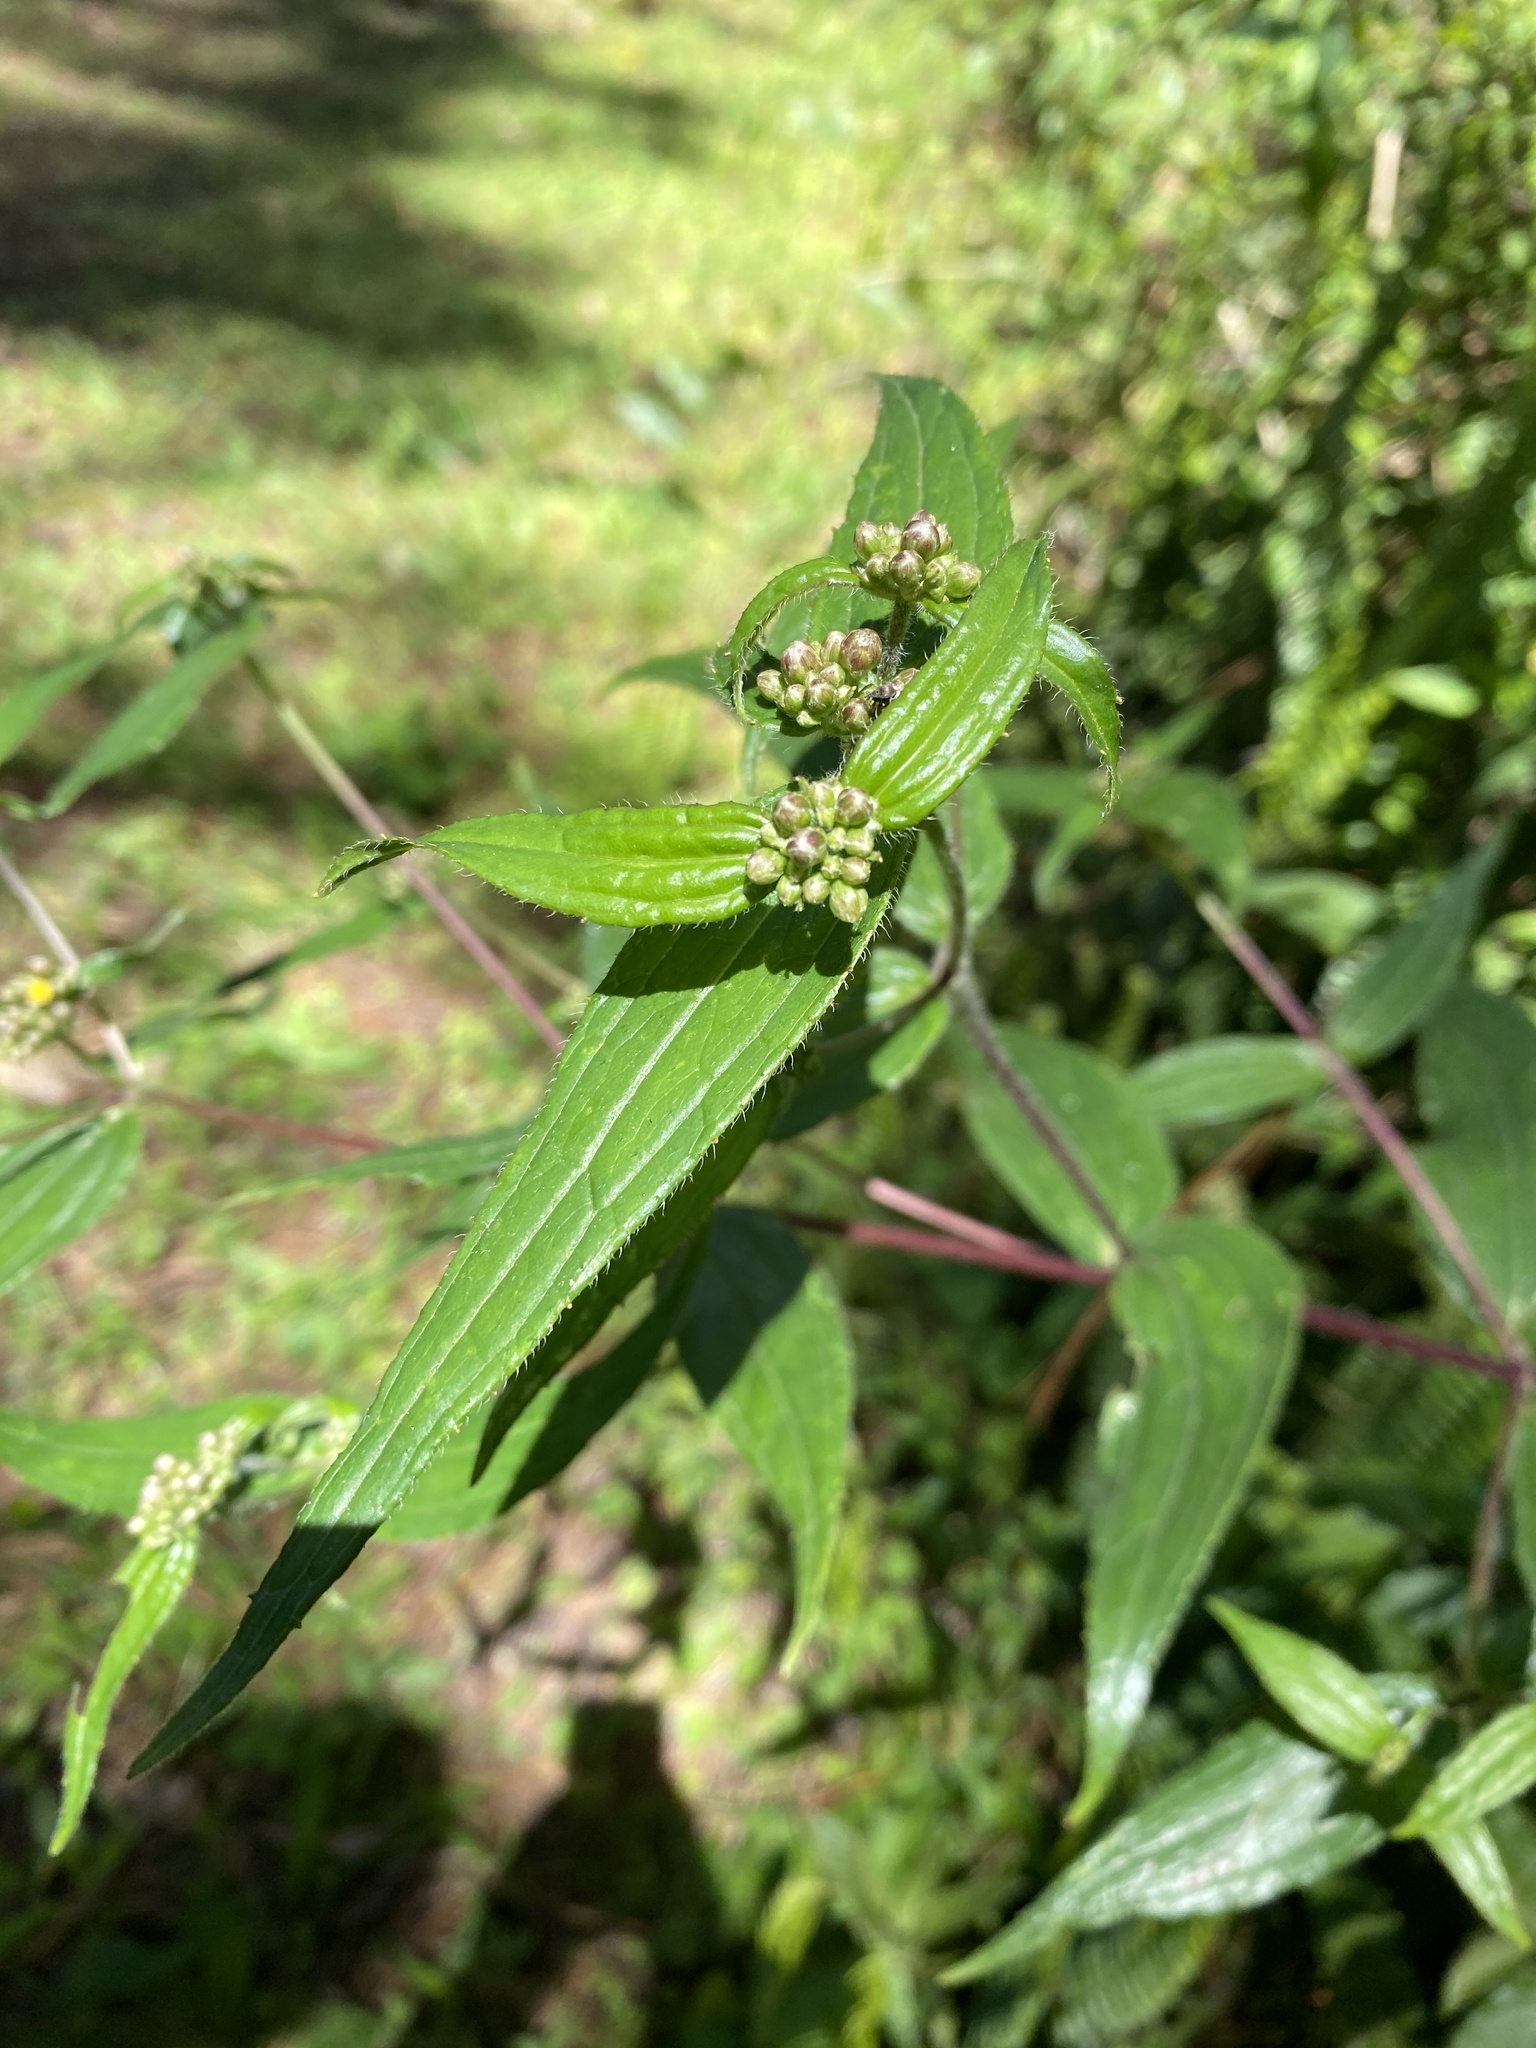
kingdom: Plantae
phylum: Tracheophyta
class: Magnoliopsida
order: Asterales
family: Asteraceae
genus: Alloispermum
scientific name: Alloispermum integrifolium
